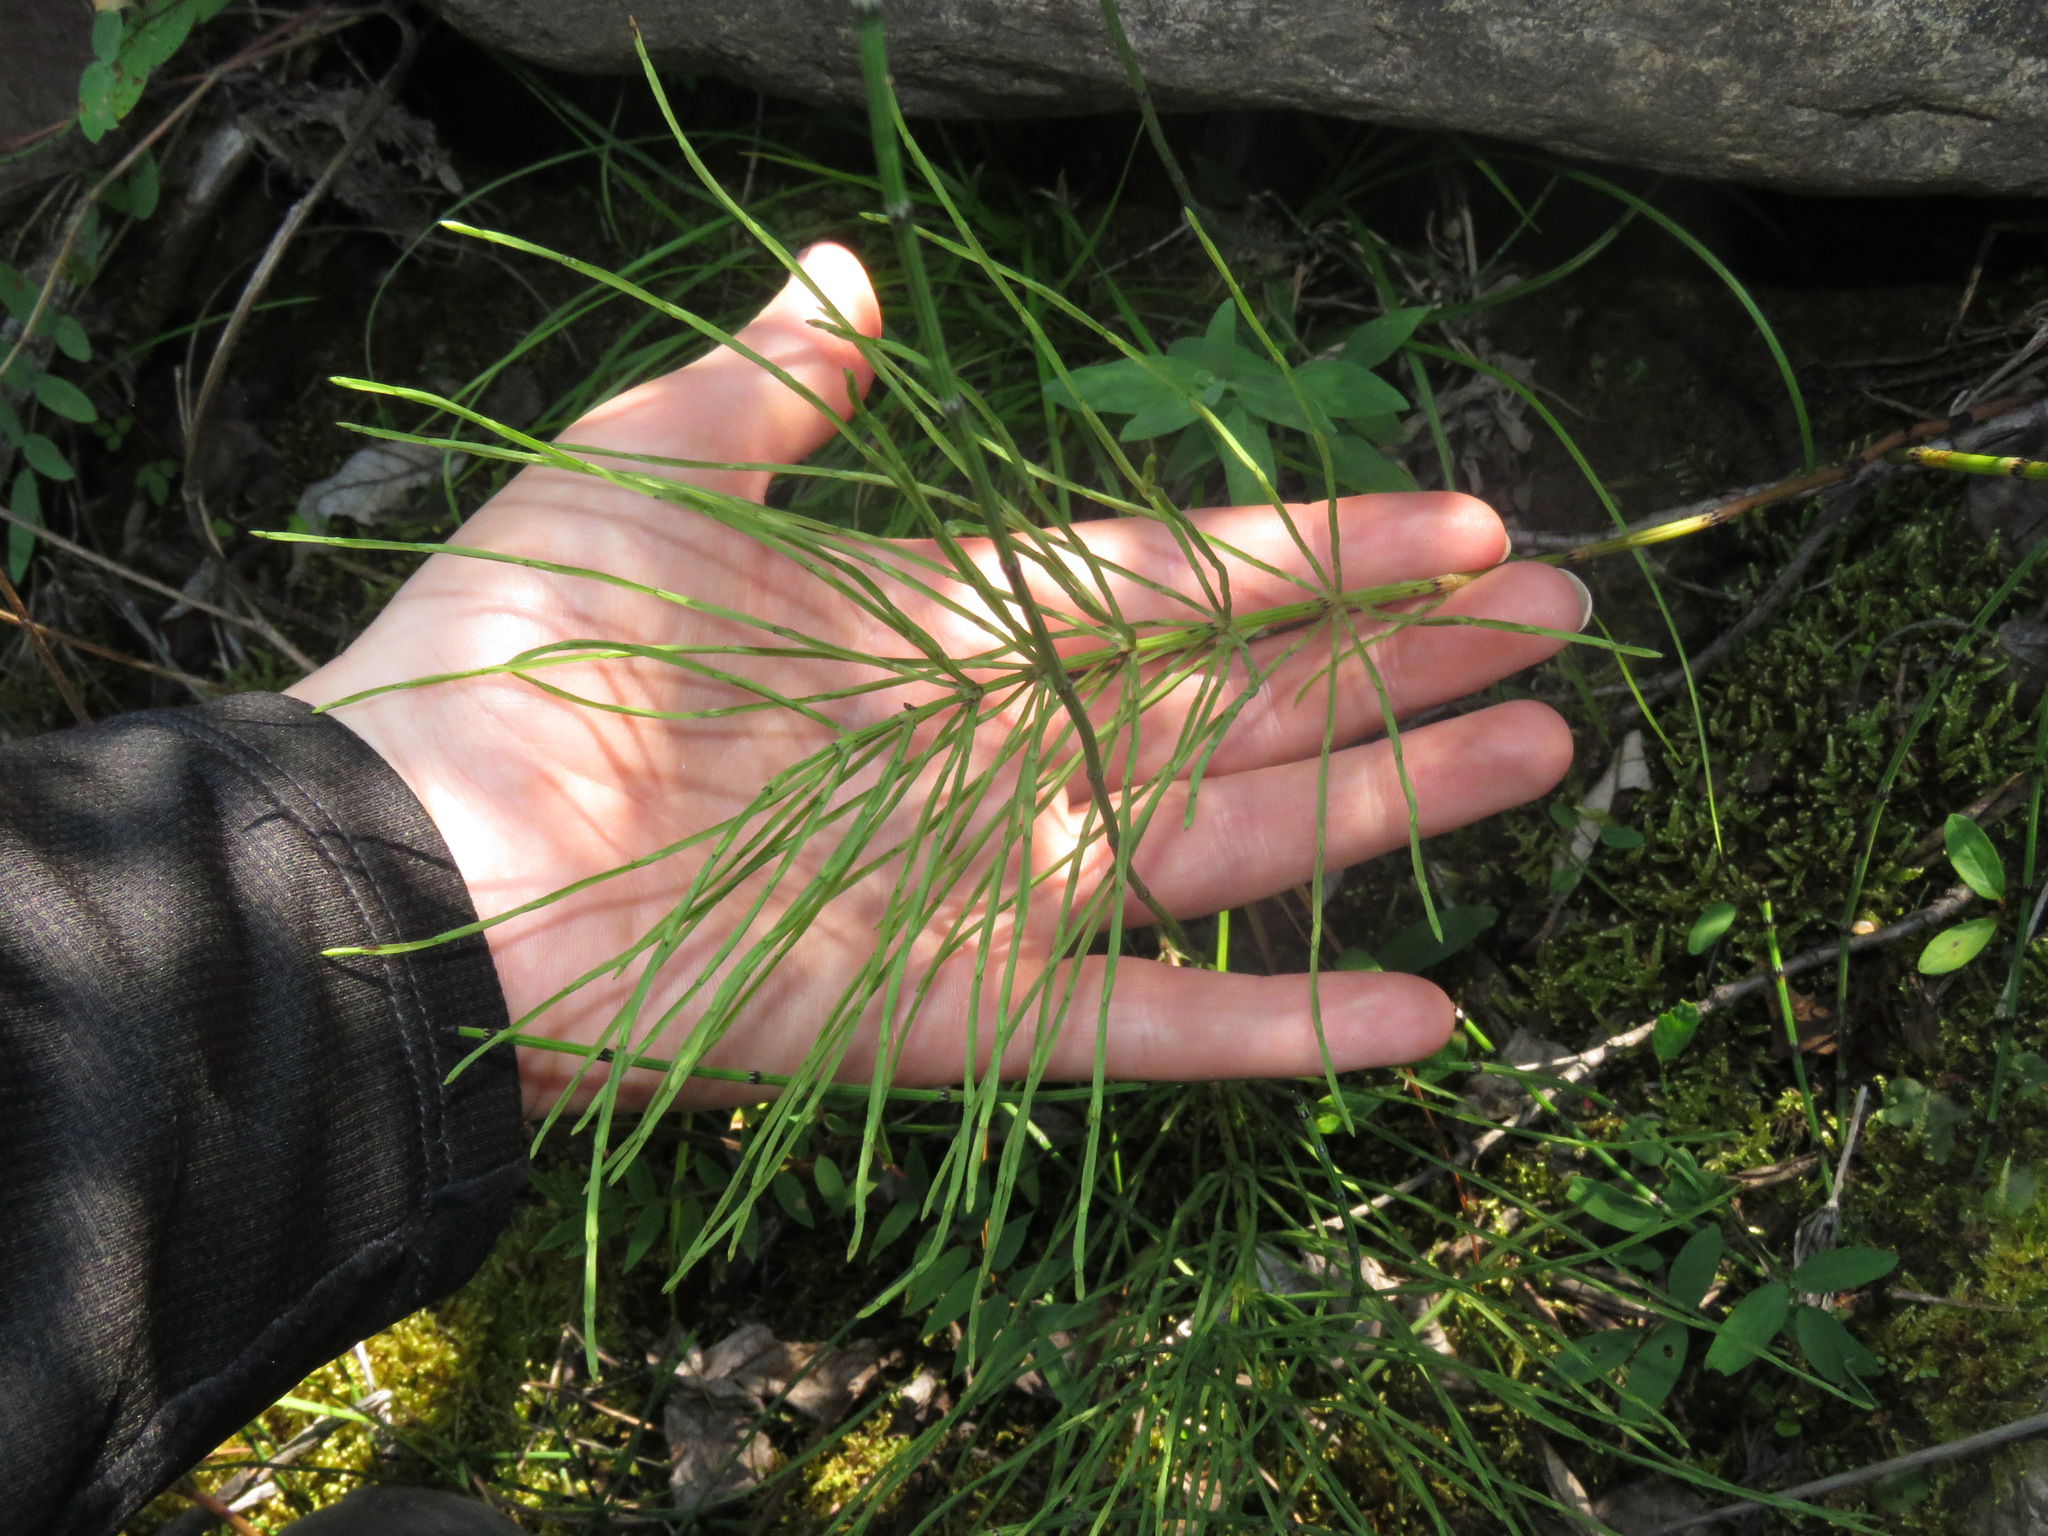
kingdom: Plantae
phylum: Tracheophyta
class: Polypodiopsida
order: Equisetales
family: Equisetaceae
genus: Equisetum
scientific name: Equisetum arvense
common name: Field horsetail
